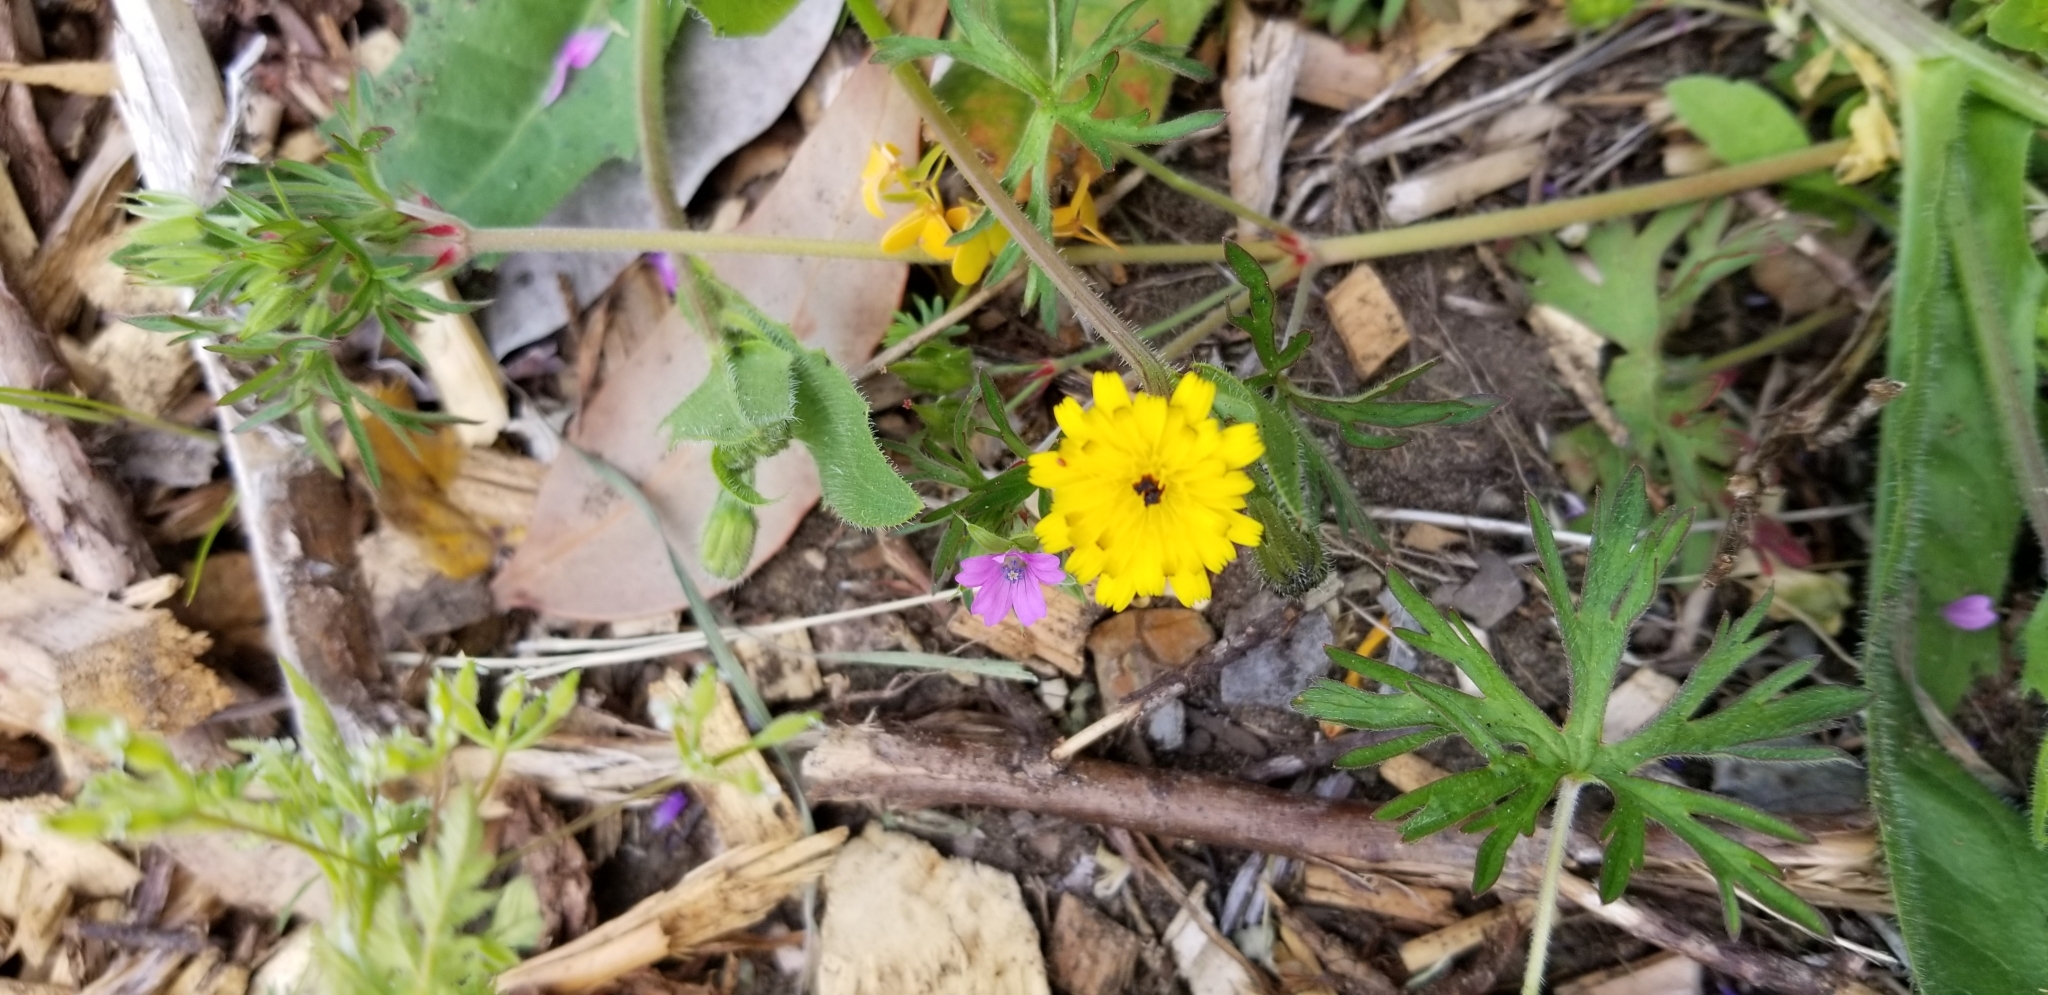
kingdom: Plantae
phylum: Tracheophyta
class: Magnoliopsida
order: Asterales
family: Asteraceae
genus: Hedypnois
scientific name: Hedypnois rhagadioloides
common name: Cretan weed
